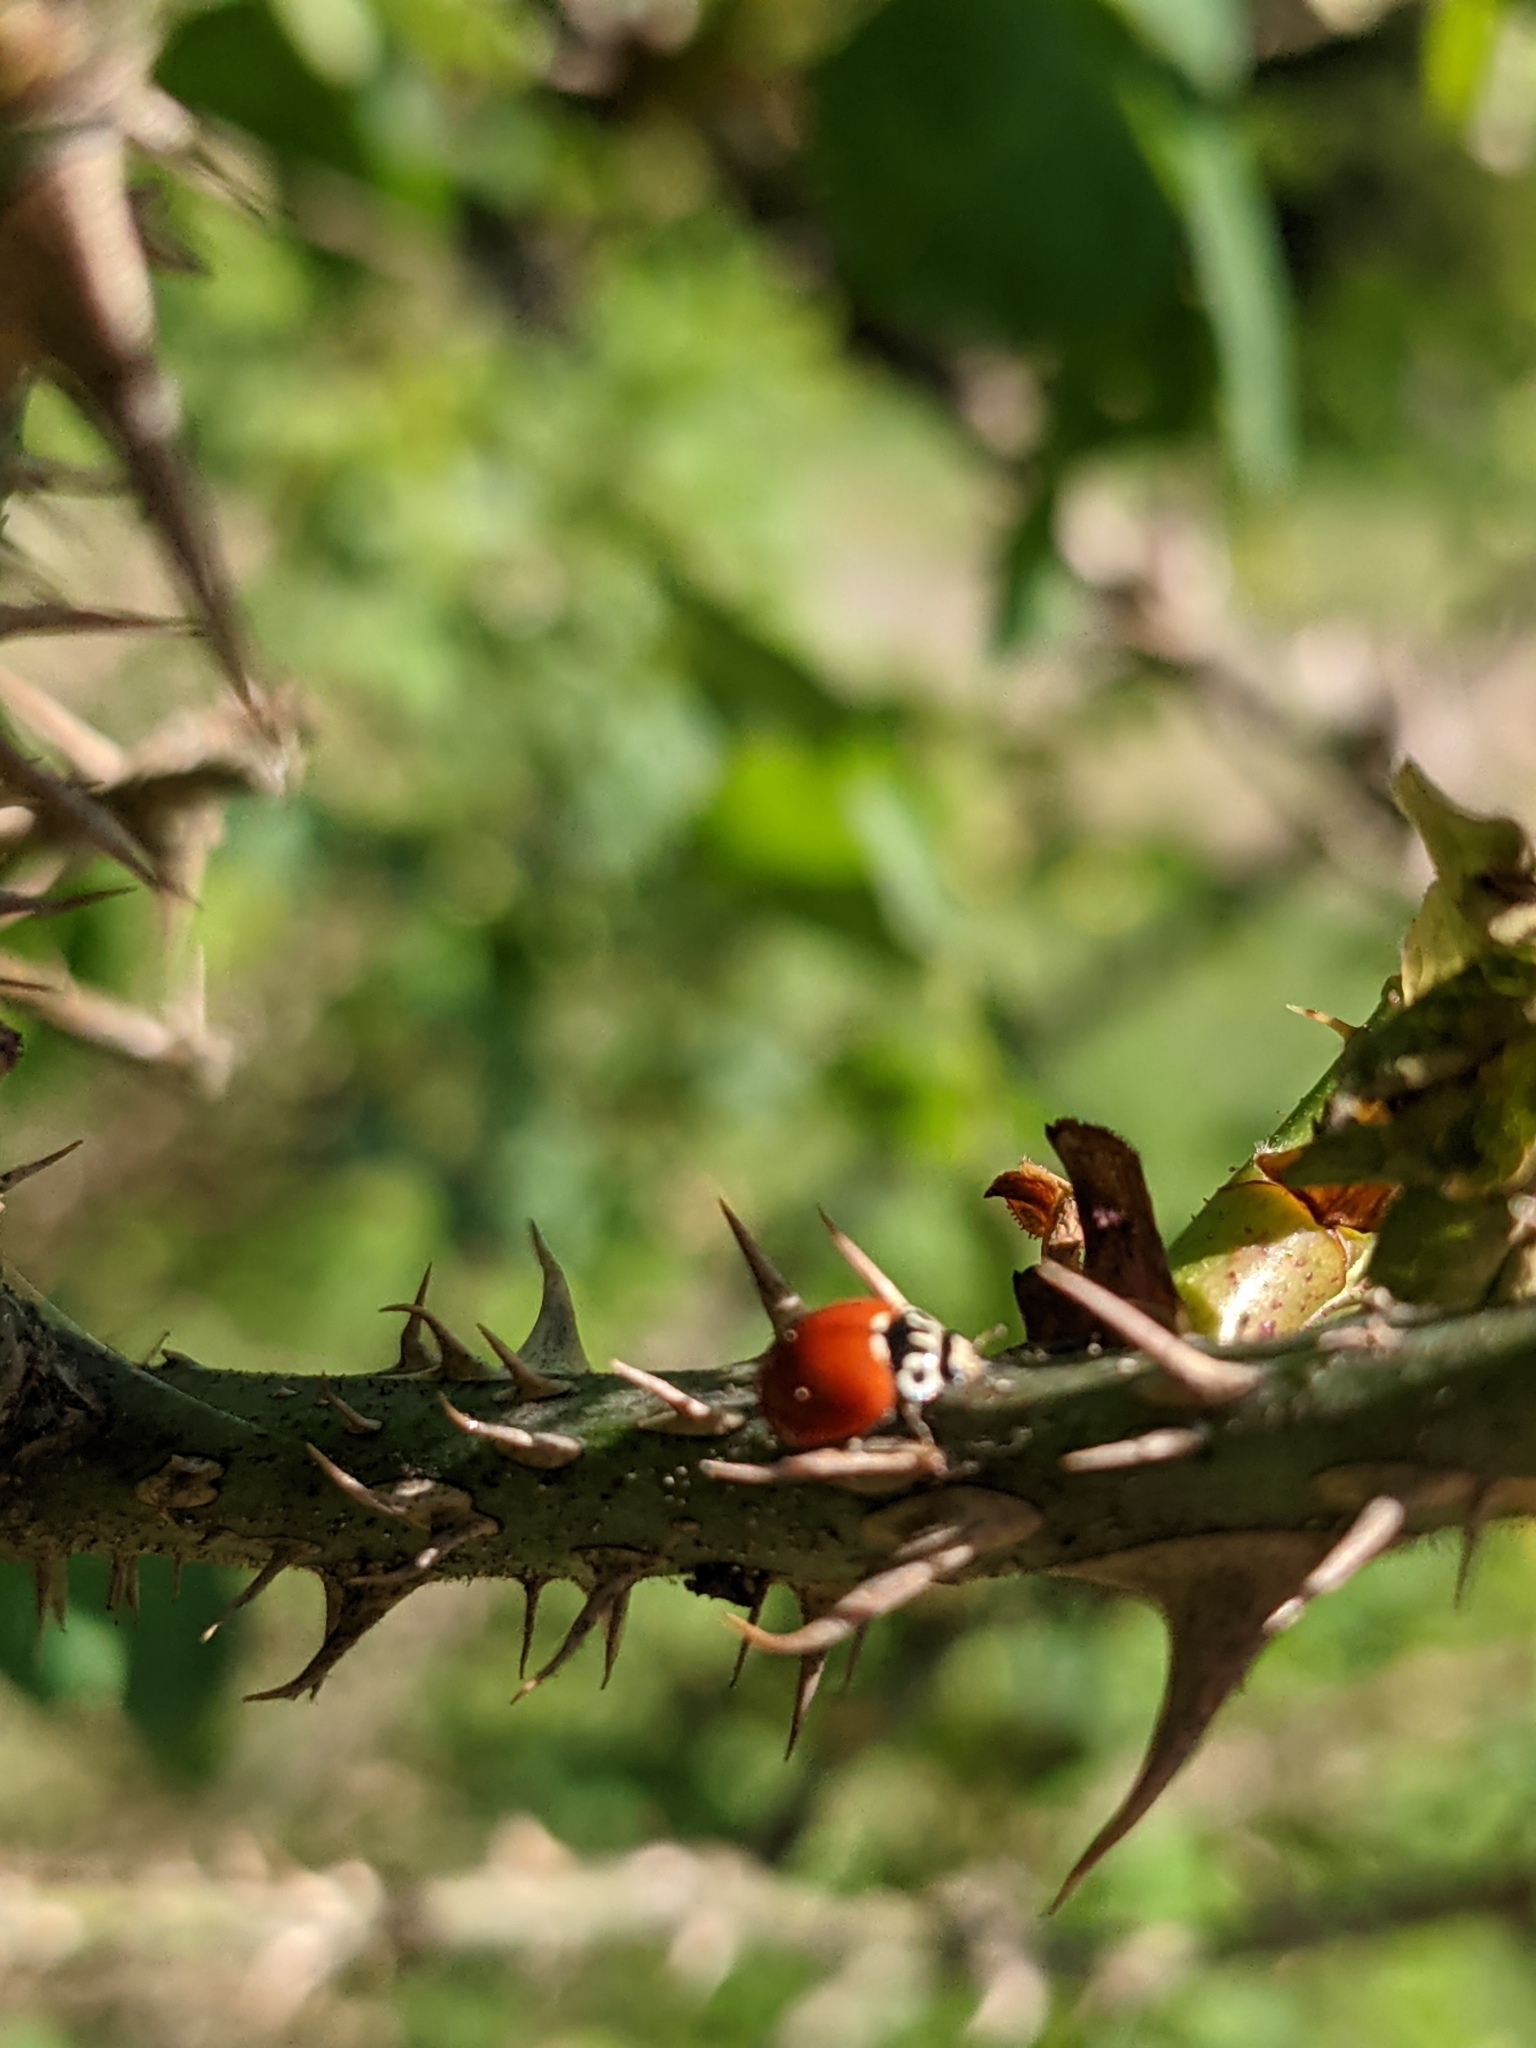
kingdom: Animalia
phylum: Arthropoda
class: Insecta
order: Coleoptera
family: Coccinellidae
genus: Cycloneda
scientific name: Cycloneda polita
